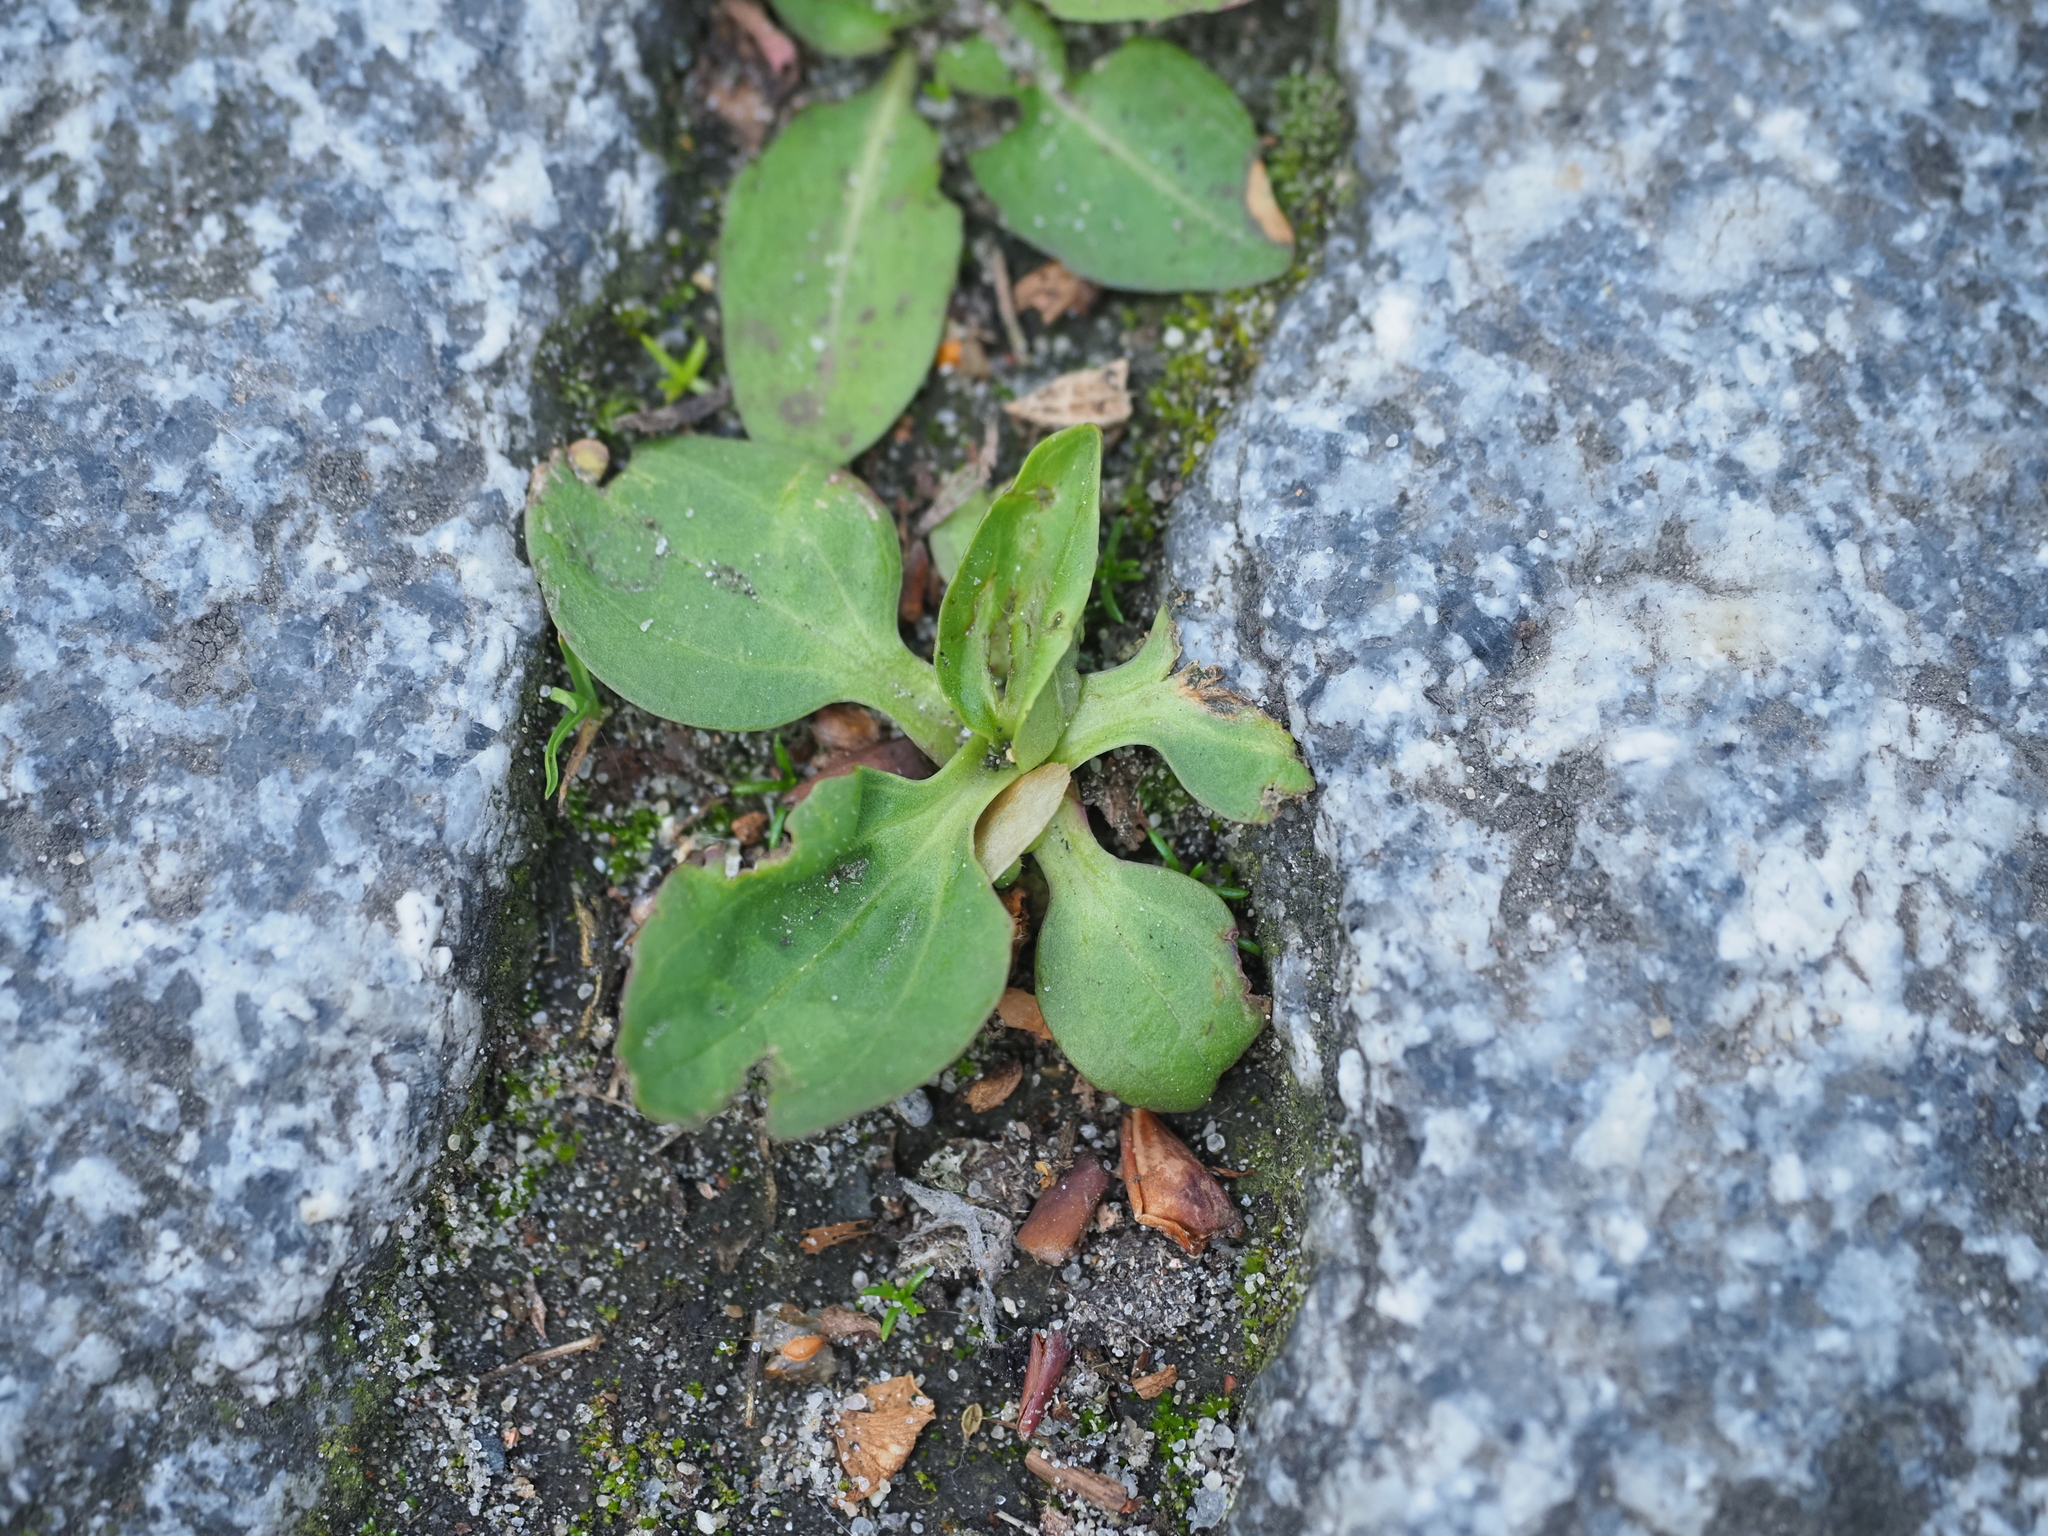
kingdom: Plantae
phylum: Tracheophyta
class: Magnoliopsida
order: Lamiales
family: Plantaginaceae
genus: Plantago
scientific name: Plantago major
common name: Common plantain
